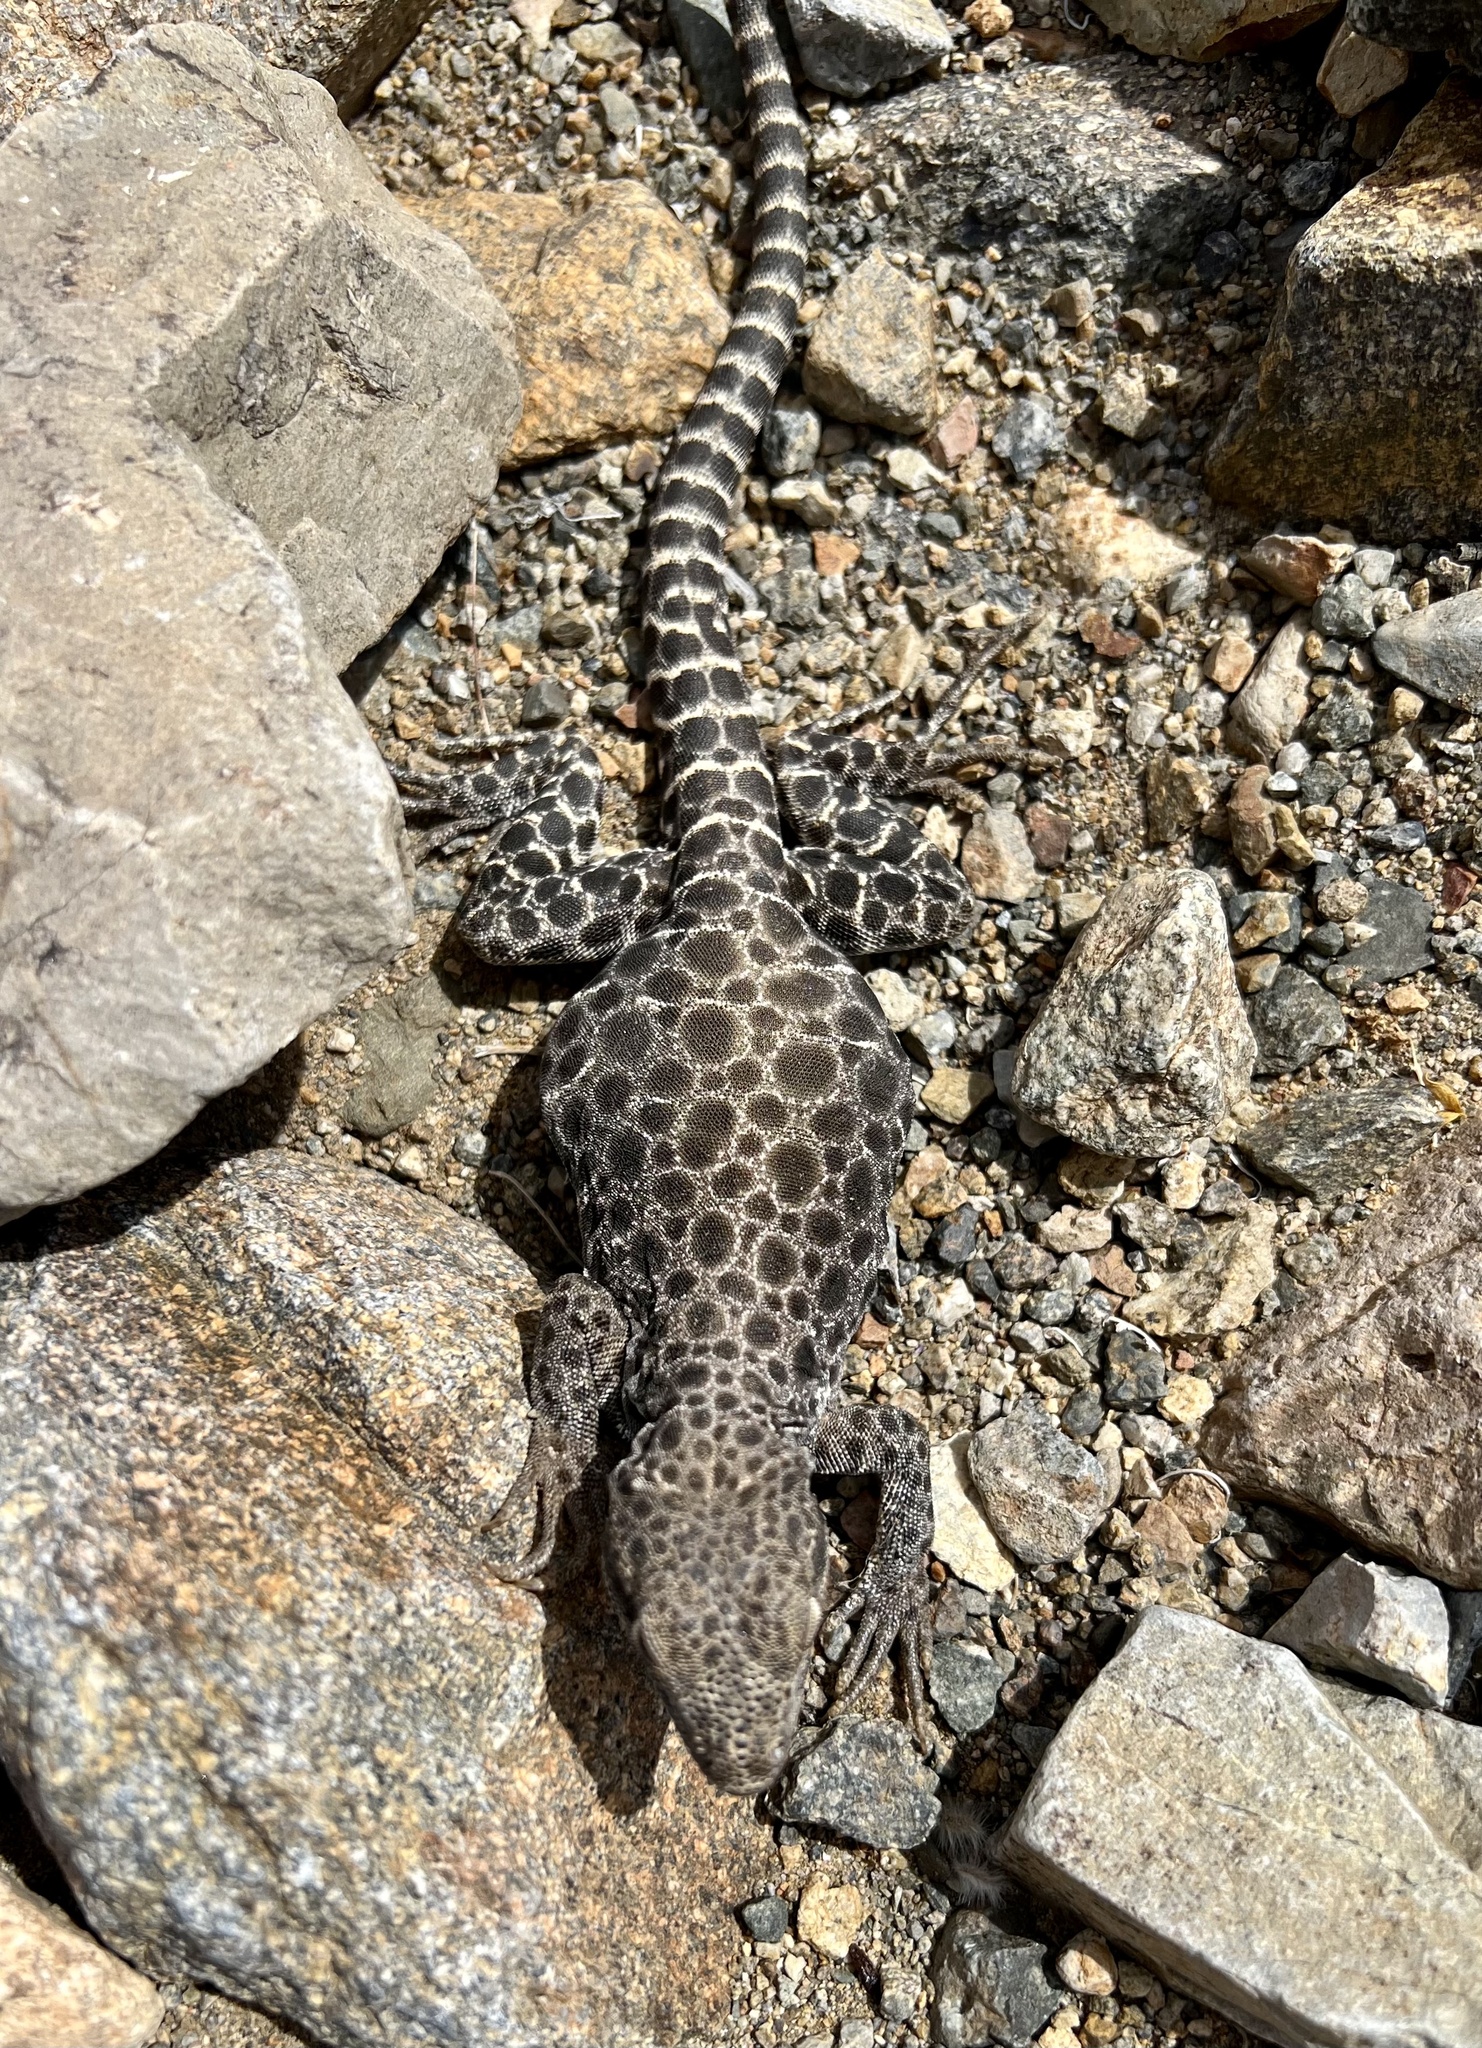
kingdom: Animalia
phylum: Chordata
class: Squamata
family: Crotaphytidae
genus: Gambelia
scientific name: Gambelia wislizenii
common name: Longnose leopard lizard
